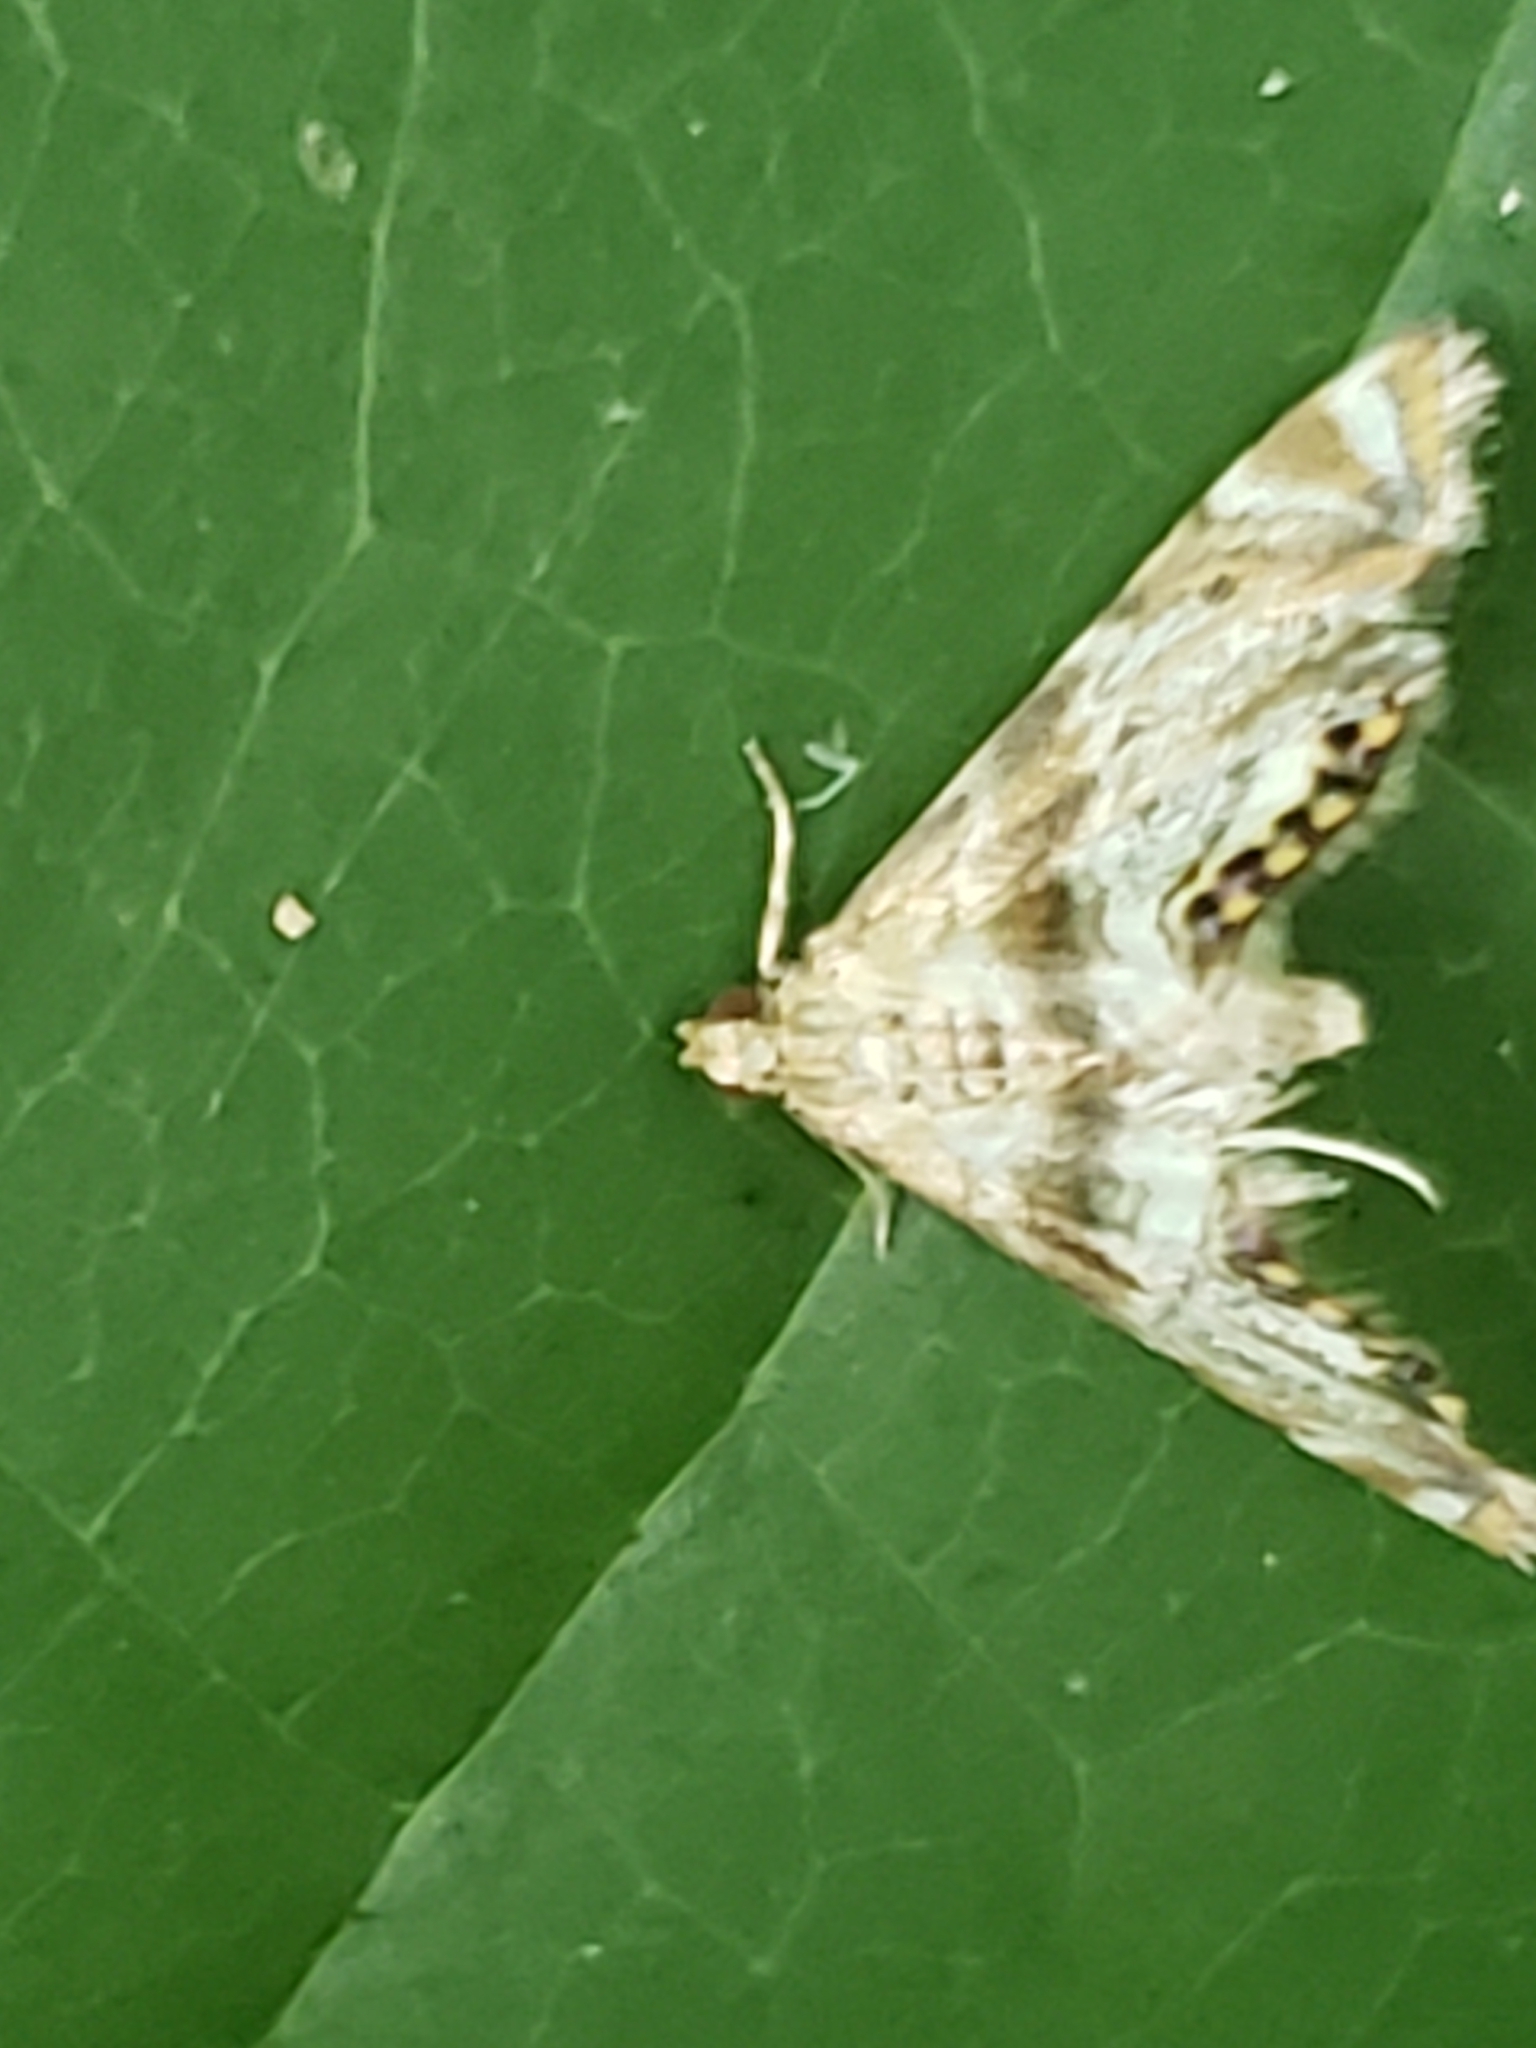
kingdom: Animalia
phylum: Arthropoda
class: Insecta
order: Lepidoptera
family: Crambidae
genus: Petrophila
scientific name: Petrophila fulicalis
